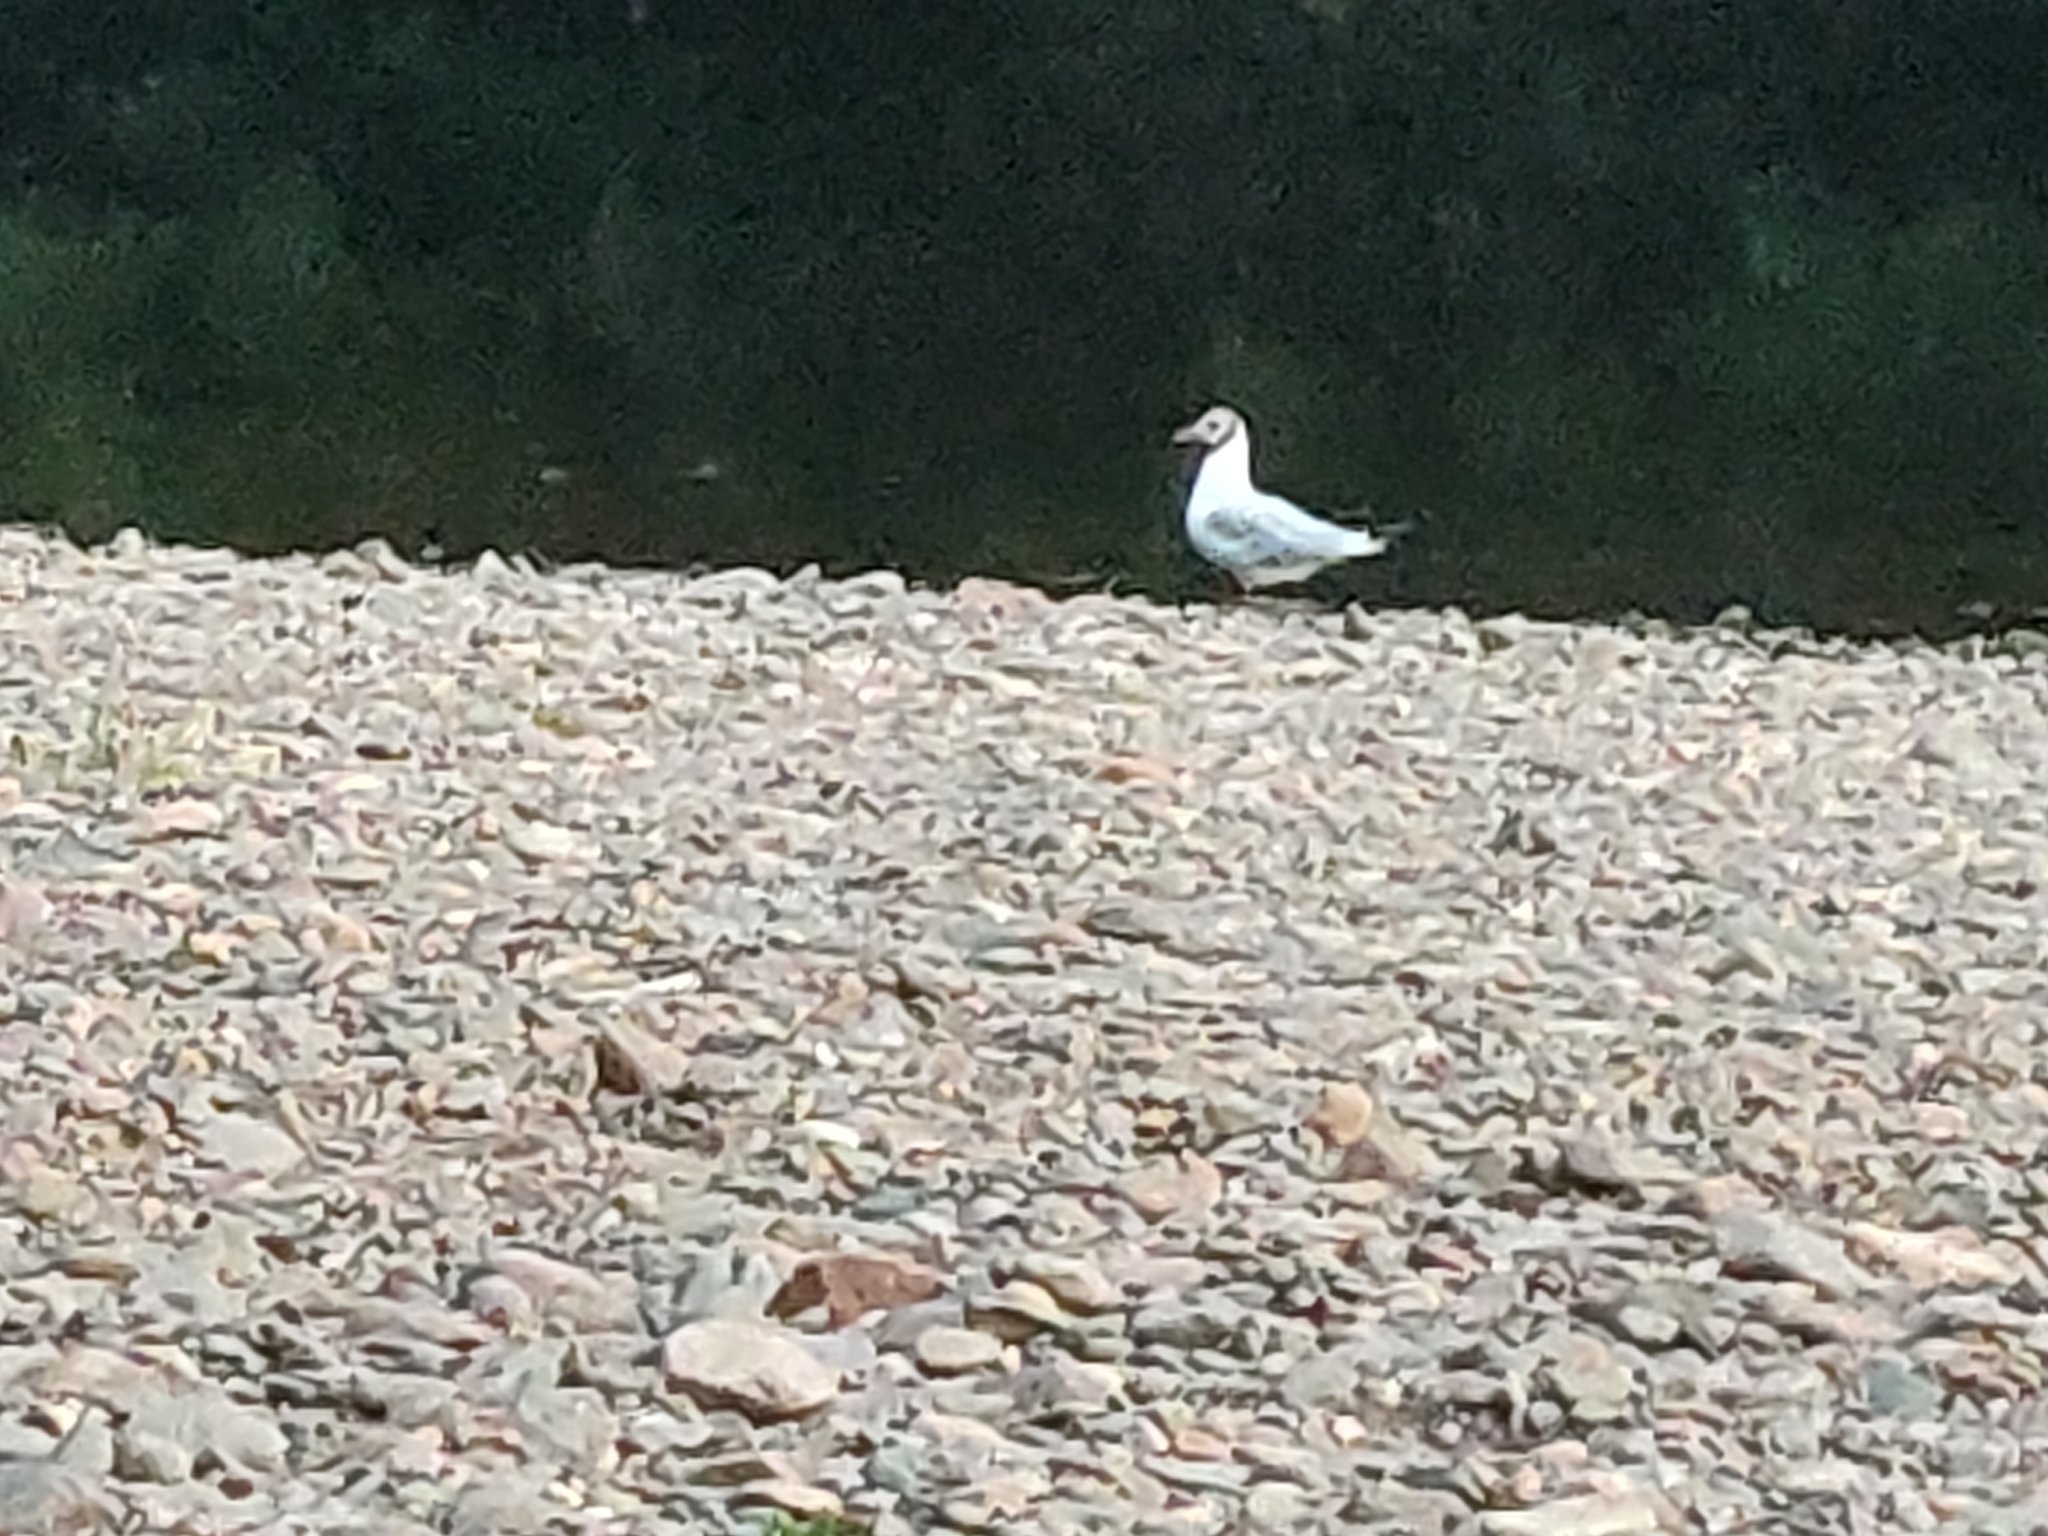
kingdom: Animalia
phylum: Chordata
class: Aves
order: Charadriiformes
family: Laridae
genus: Chroicocephalus
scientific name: Chroicocephalus ridibundus
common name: Black-headed gull
